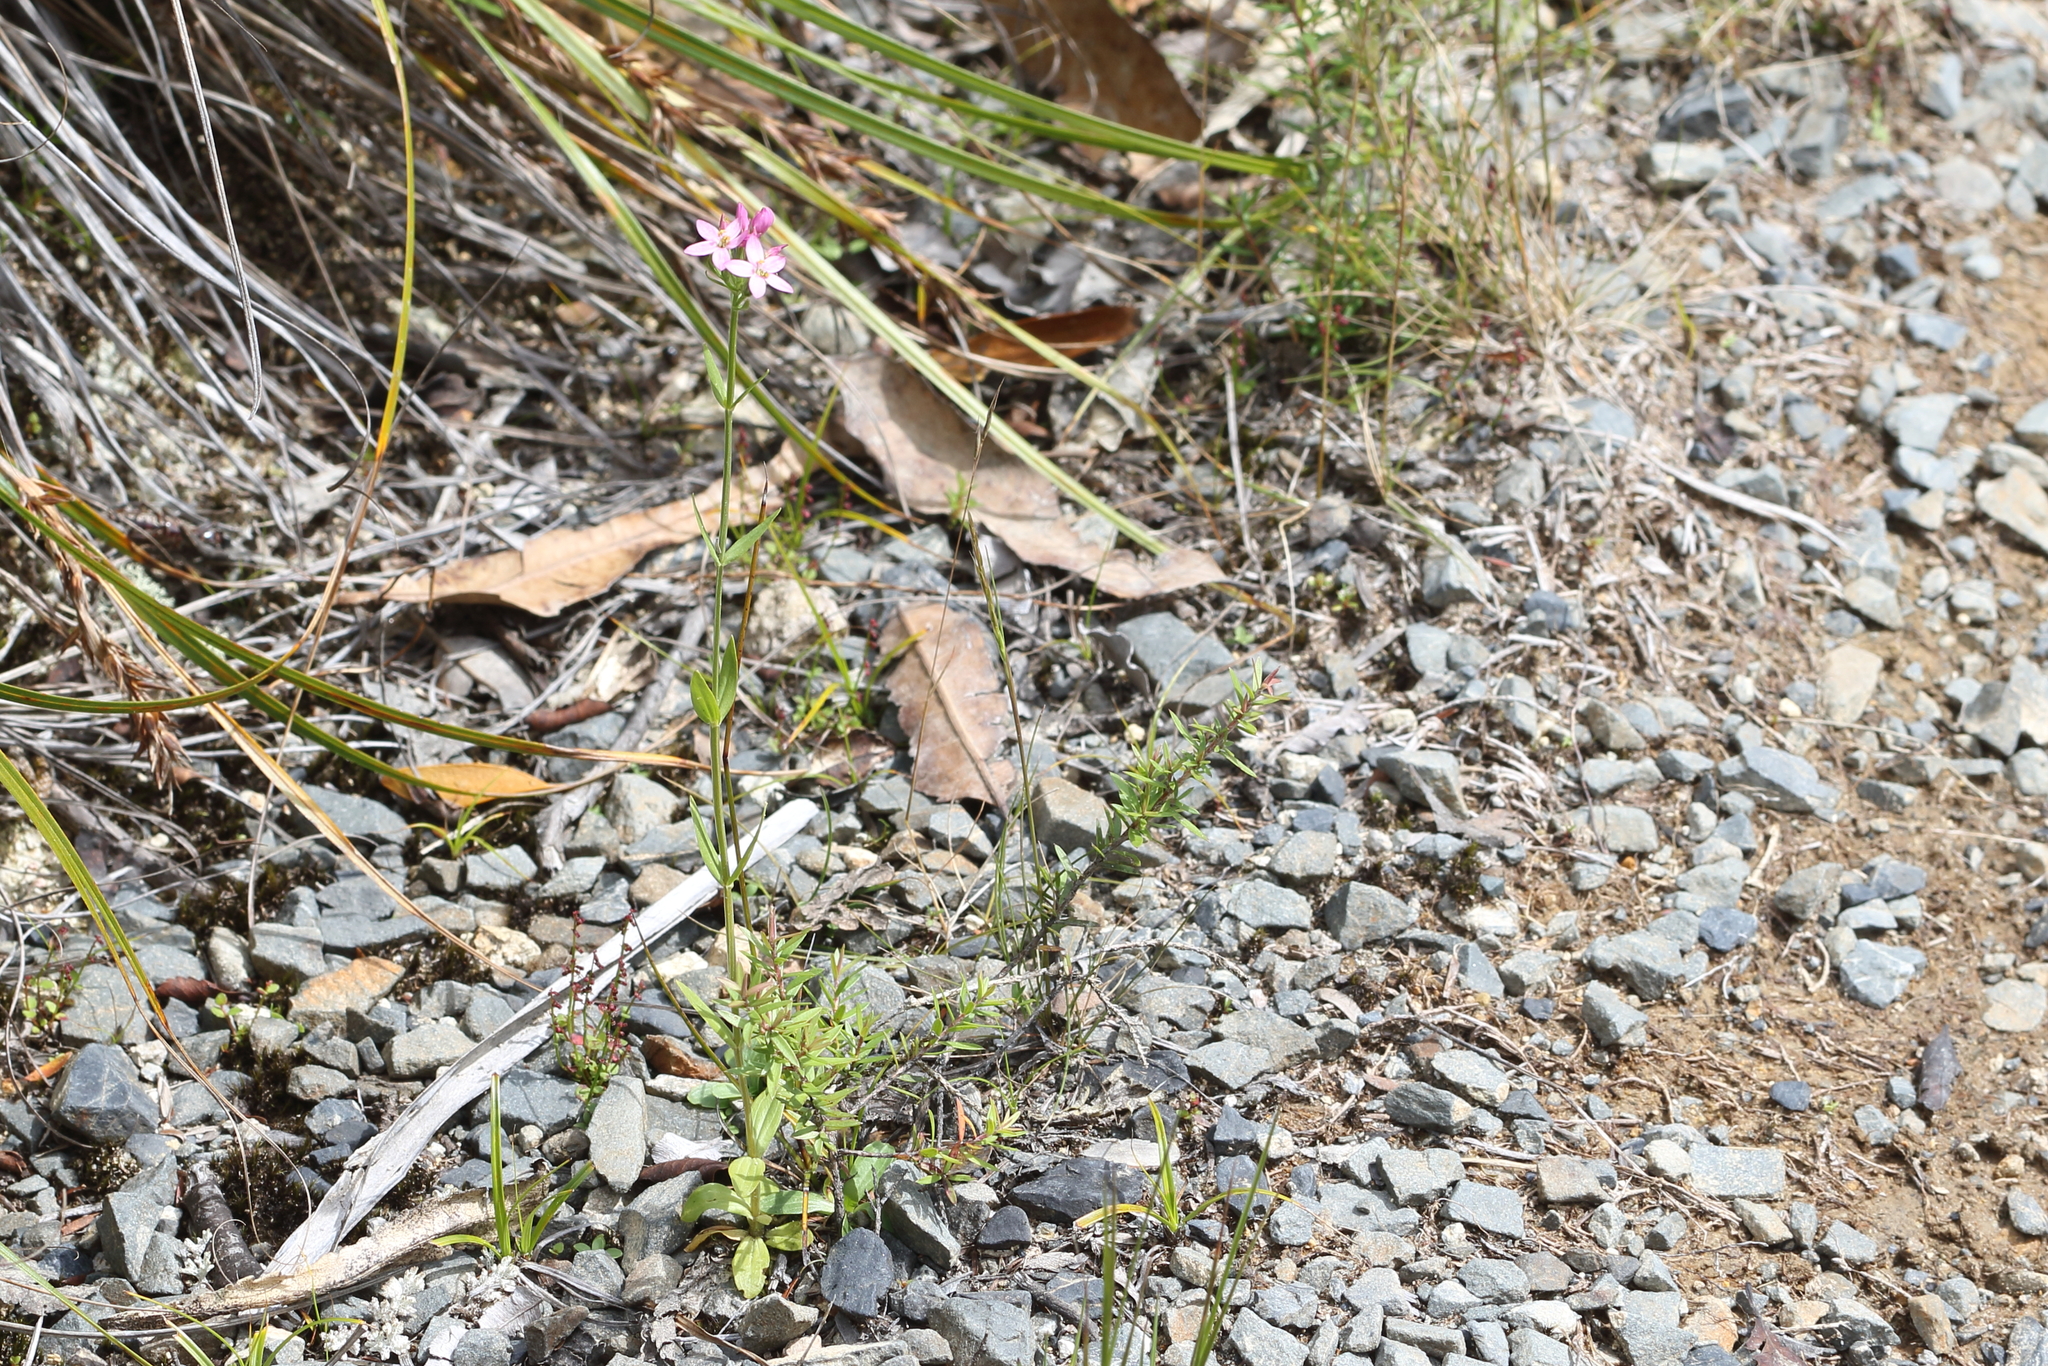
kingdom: Plantae
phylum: Tracheophyta
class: Magnoliopsida
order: Gentianales
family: Gentianaceae
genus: Centaurium
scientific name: Centaurium erythraea
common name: Common centaury
